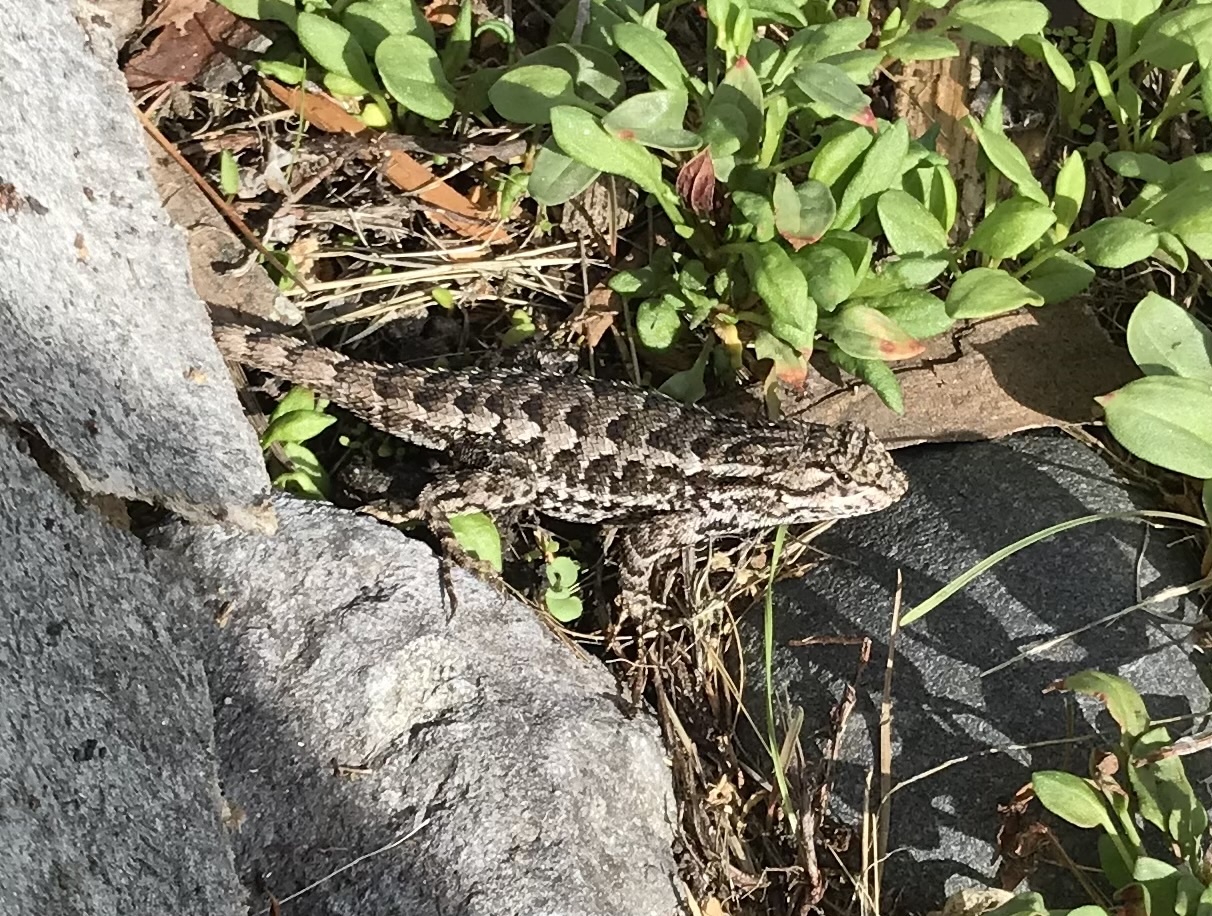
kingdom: Animalia
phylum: Chordata
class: Squamata
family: Phrynosomatidae
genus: Sceloporus
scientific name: Sceloporus occidentalis
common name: Western fence lizard
